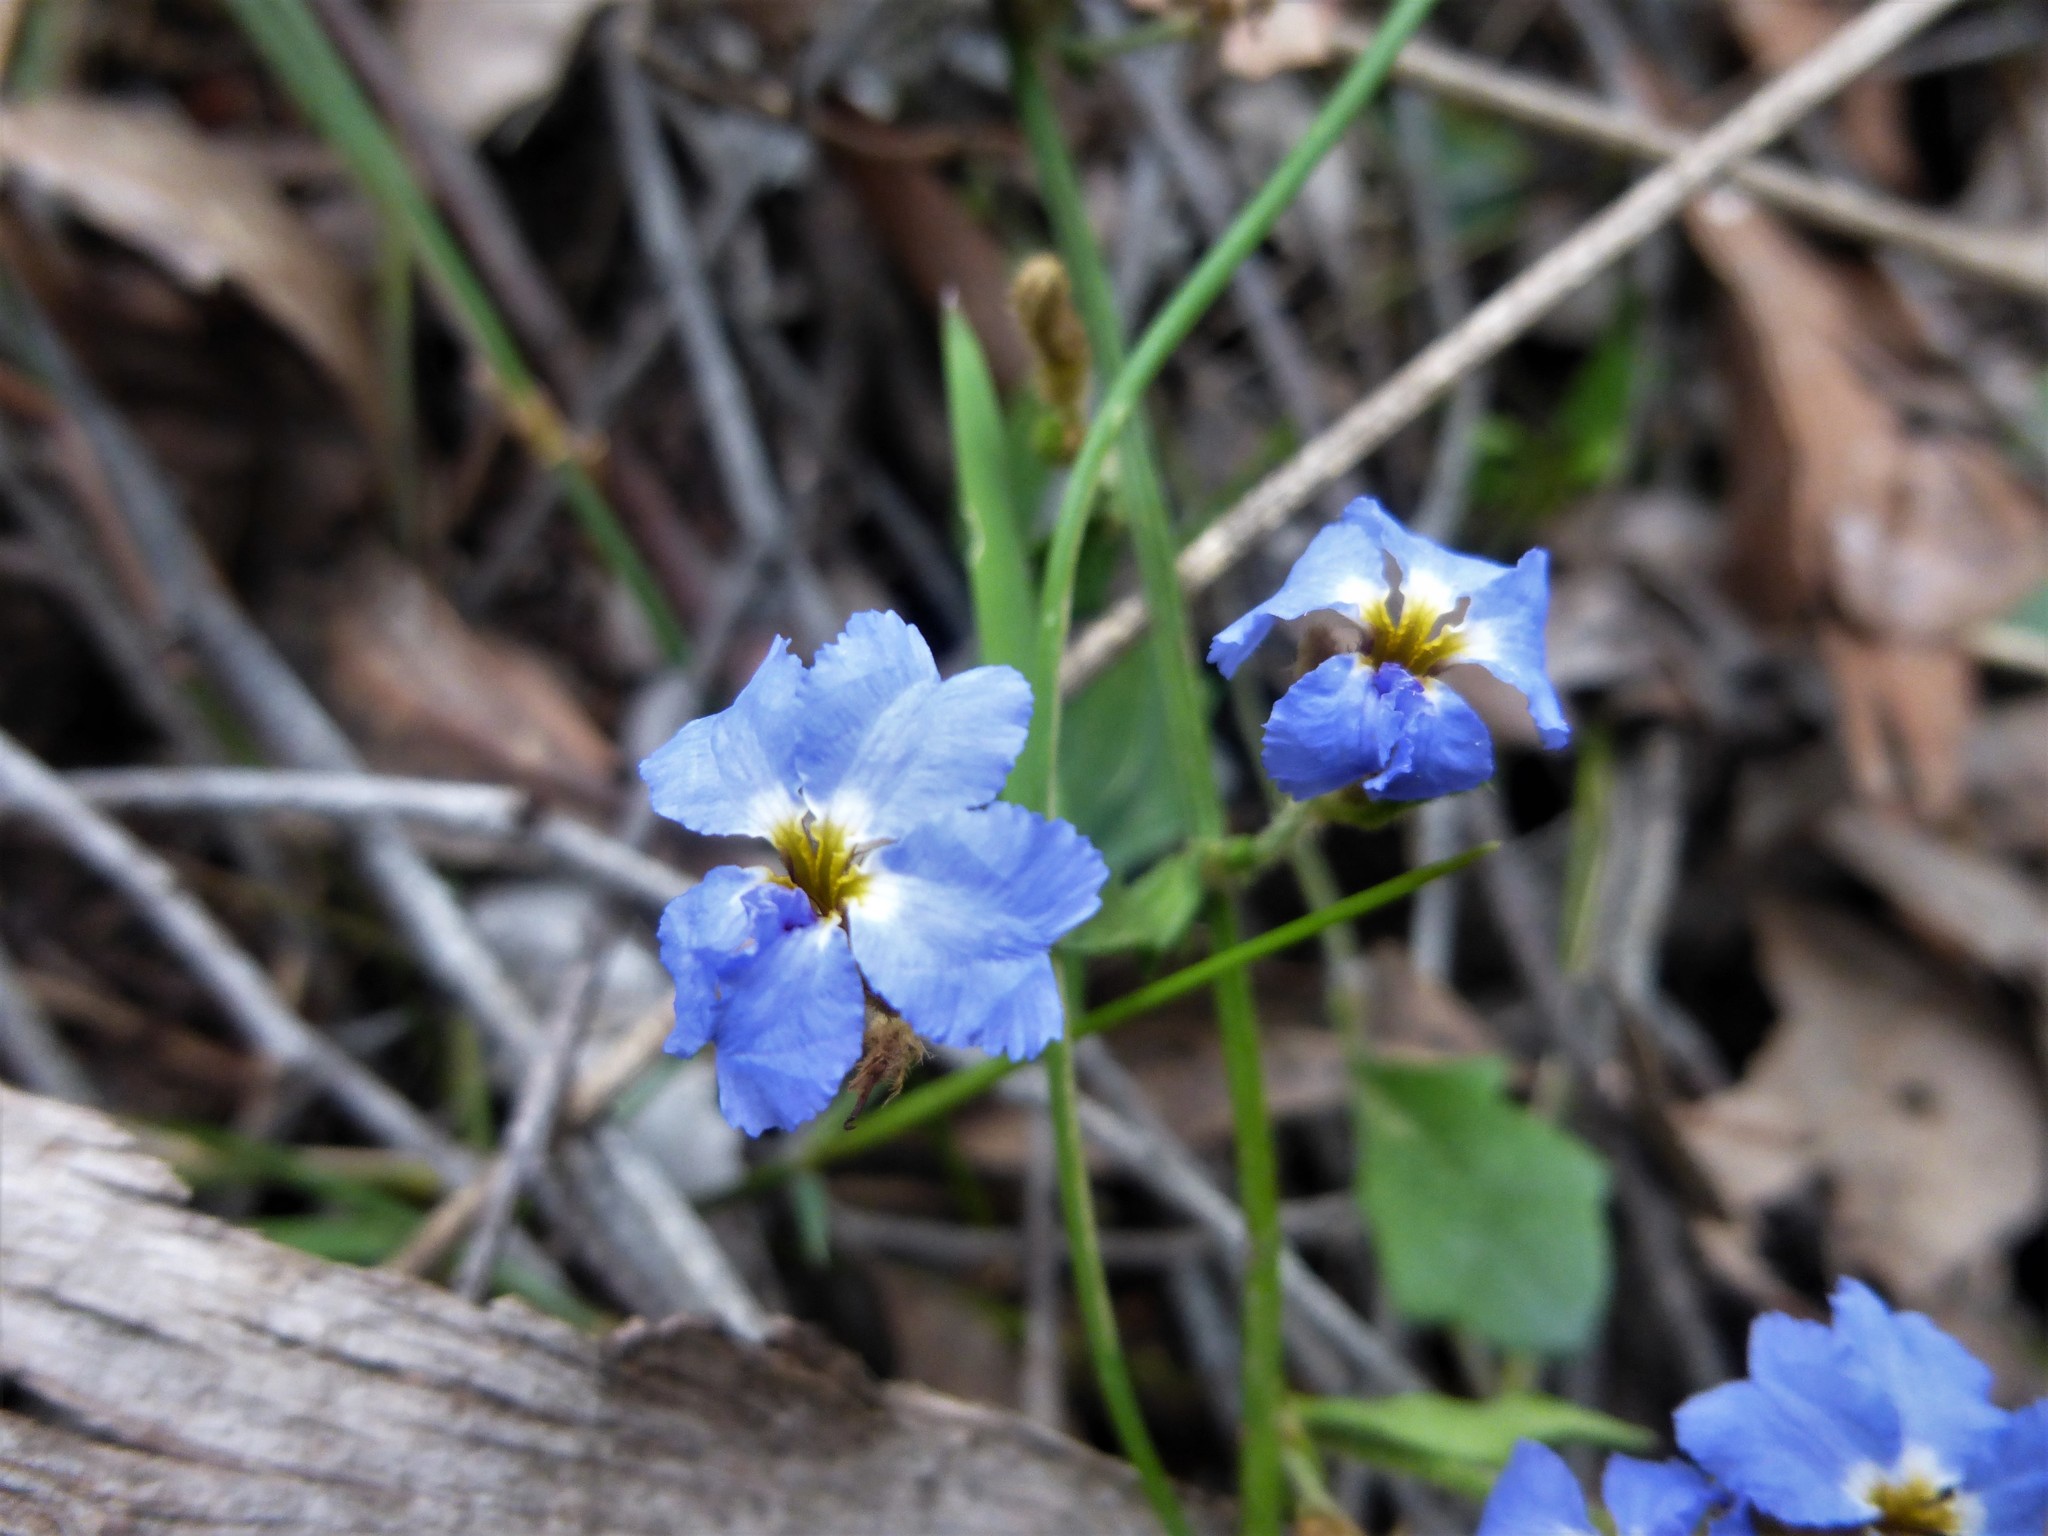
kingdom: Plantae
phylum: Tracheophyta
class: Magnoliopsida
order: Asterales
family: Goodeniaceae
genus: Dampiera
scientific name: Dampiera stricta
